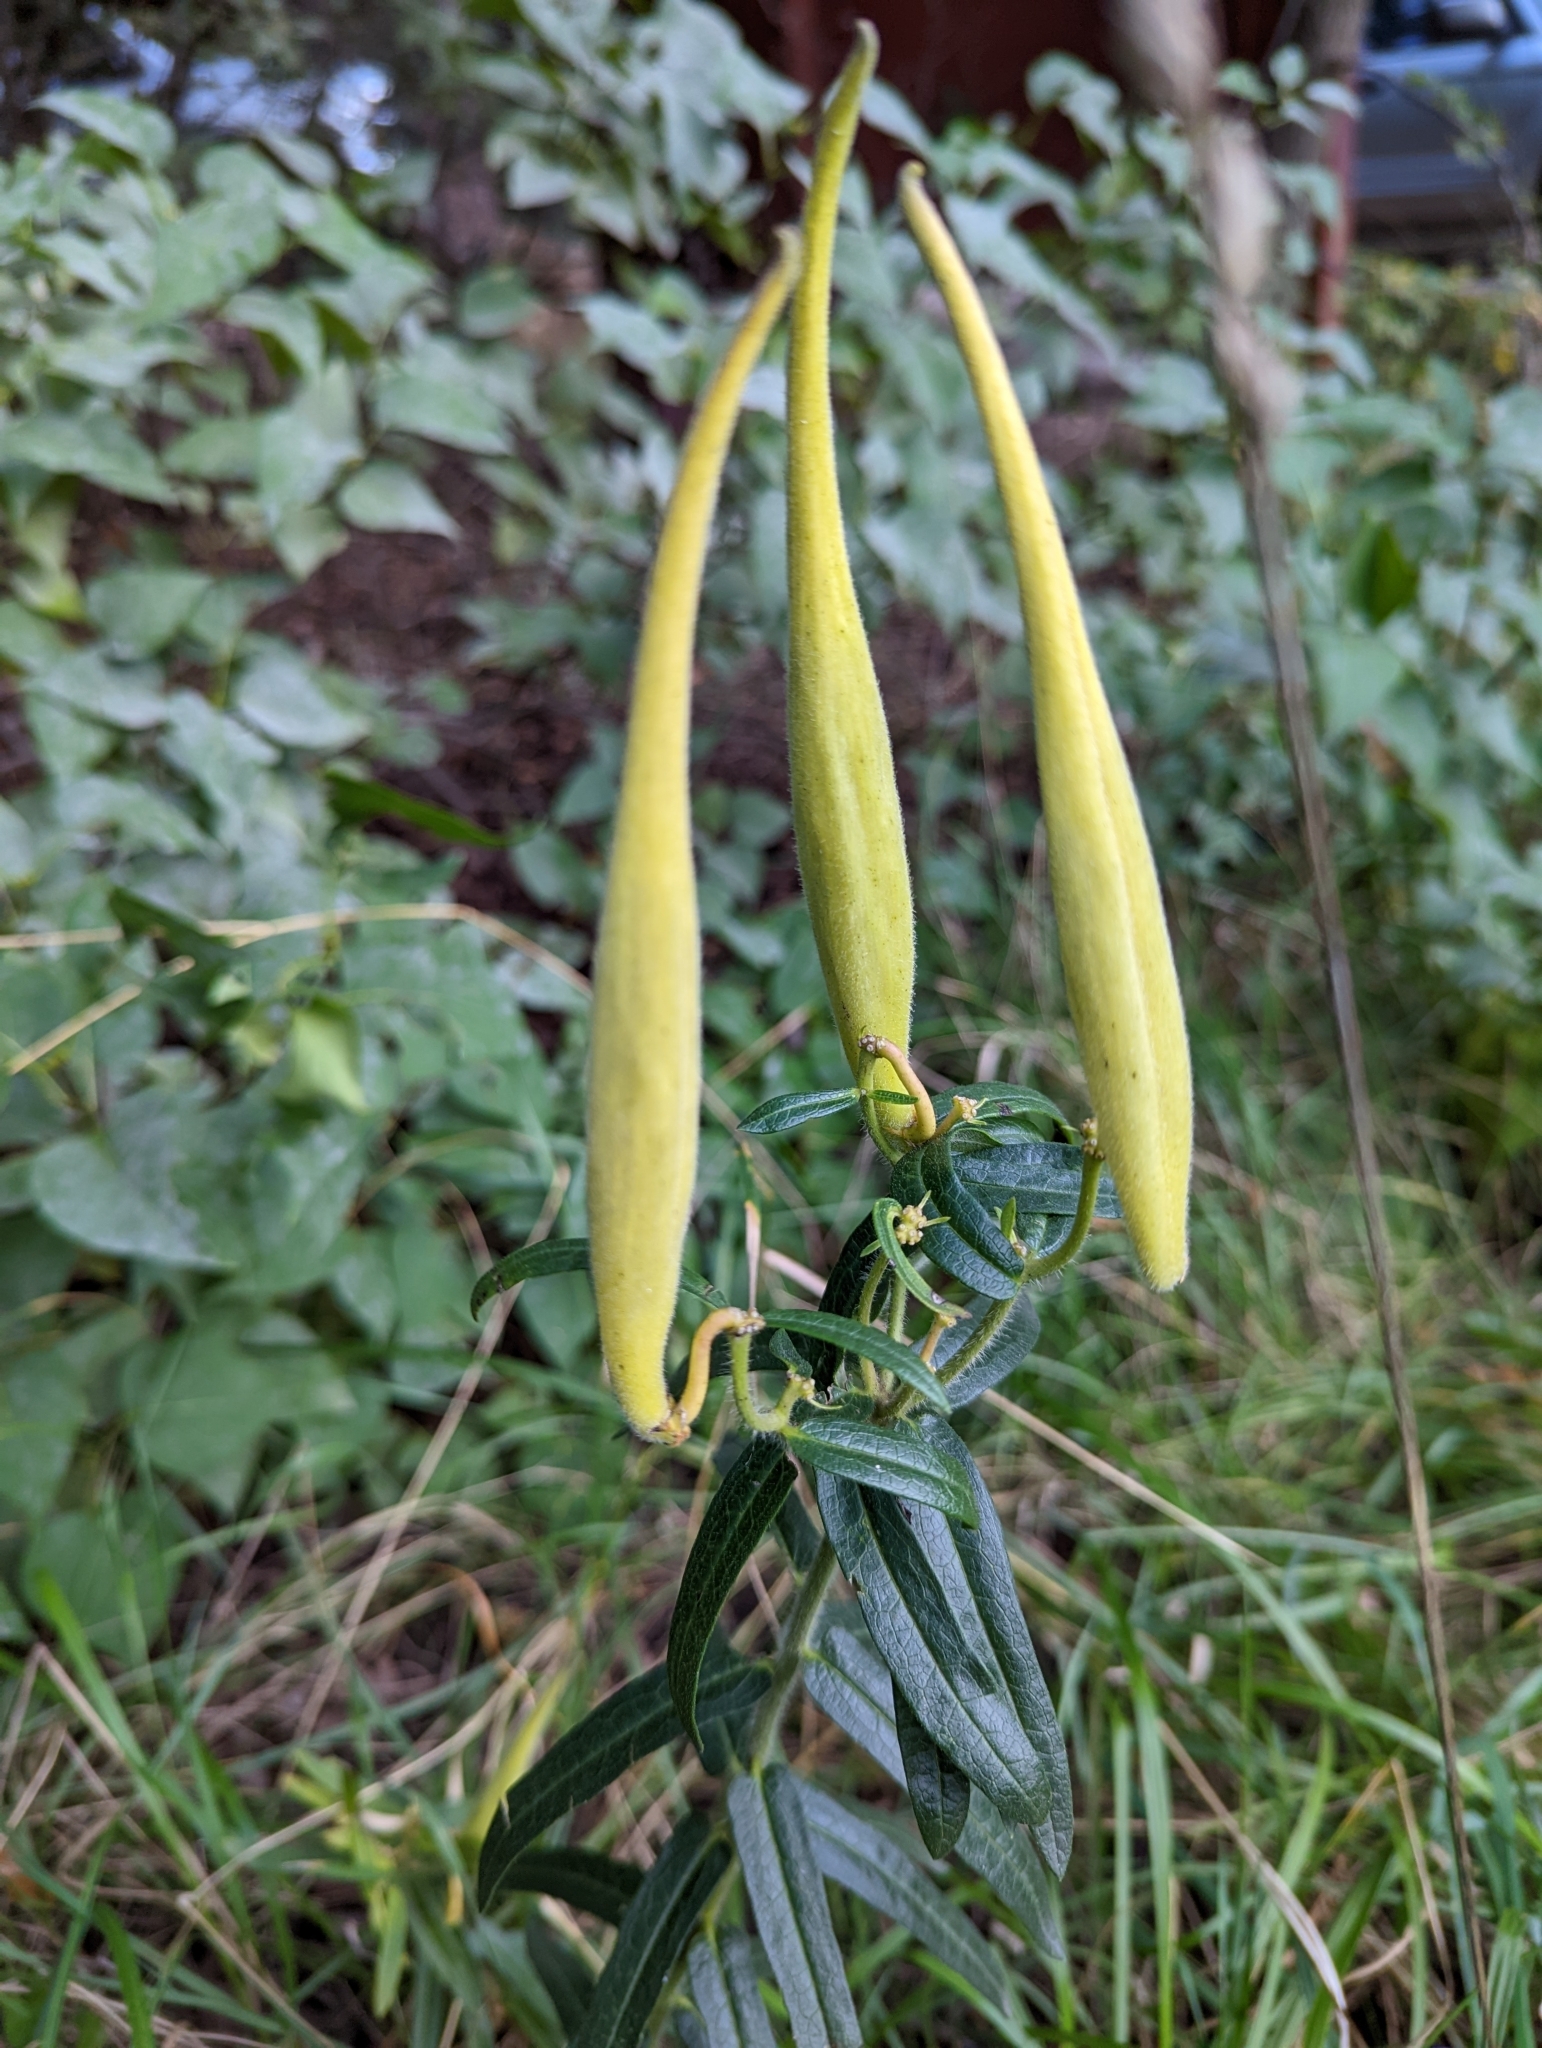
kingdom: Plantae
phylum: Tracheophyta
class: Magnoliopsida
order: Gentianales
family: Apocynaceae
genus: Asclepias
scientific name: Asclepias tuberosa
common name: Butterfly milkweed
